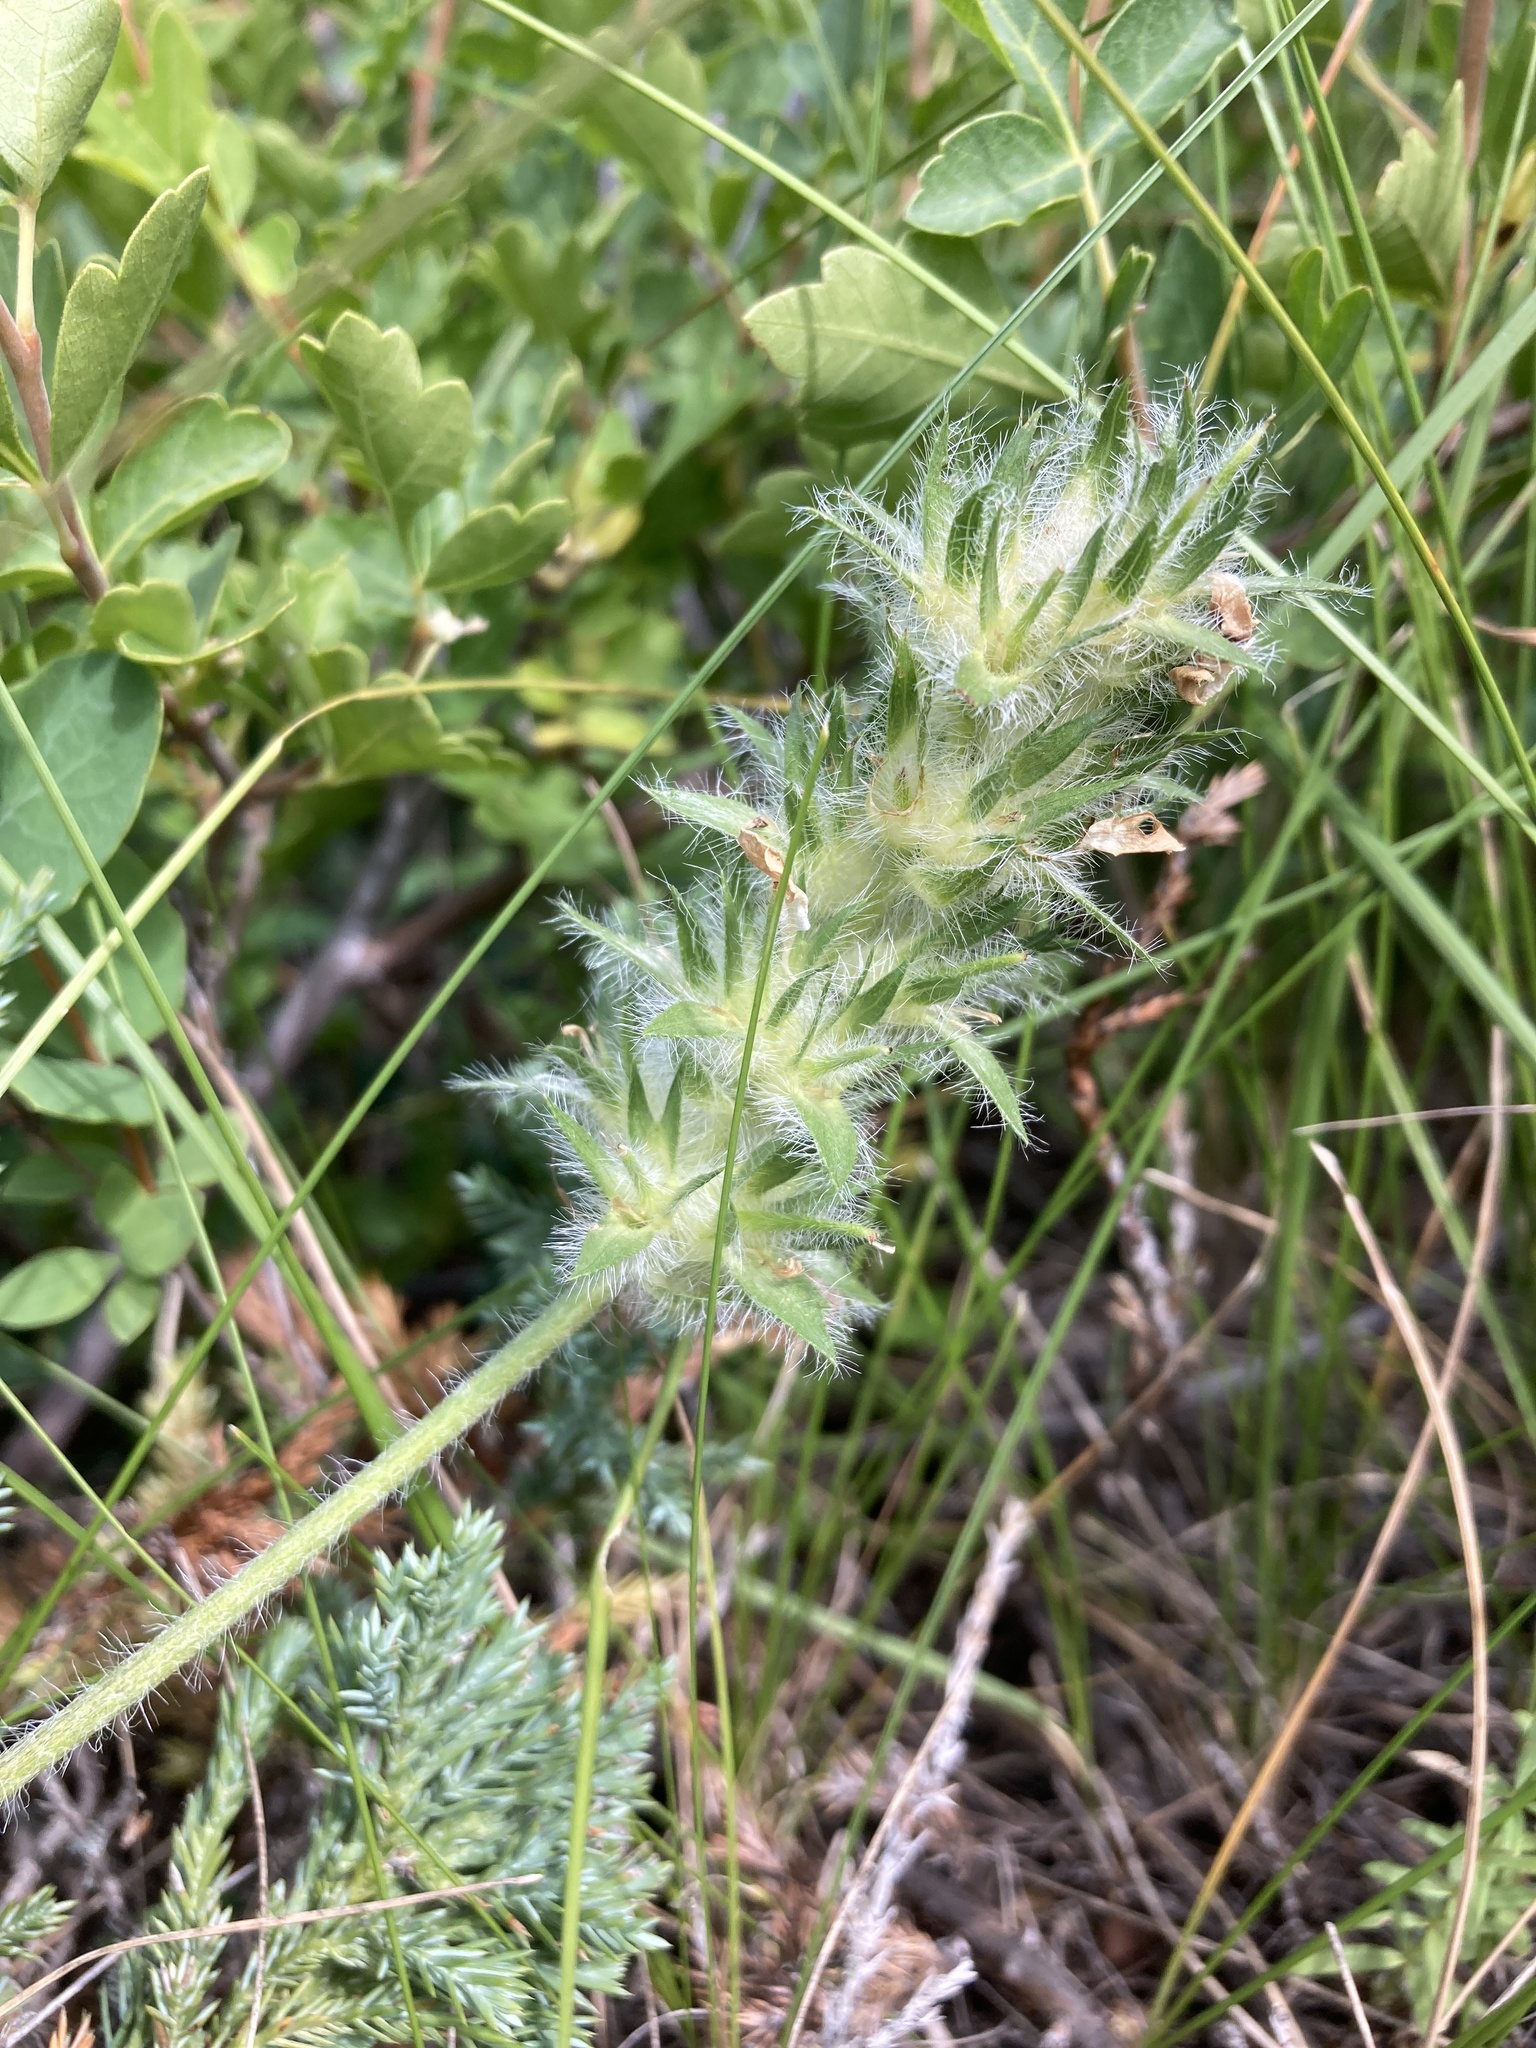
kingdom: Plantae
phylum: Tracheophyta
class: Magnoliopsida
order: Fabales
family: Fabaceae
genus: Pediomelum
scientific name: Pediomelum esculentum
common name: Indian-turnip
